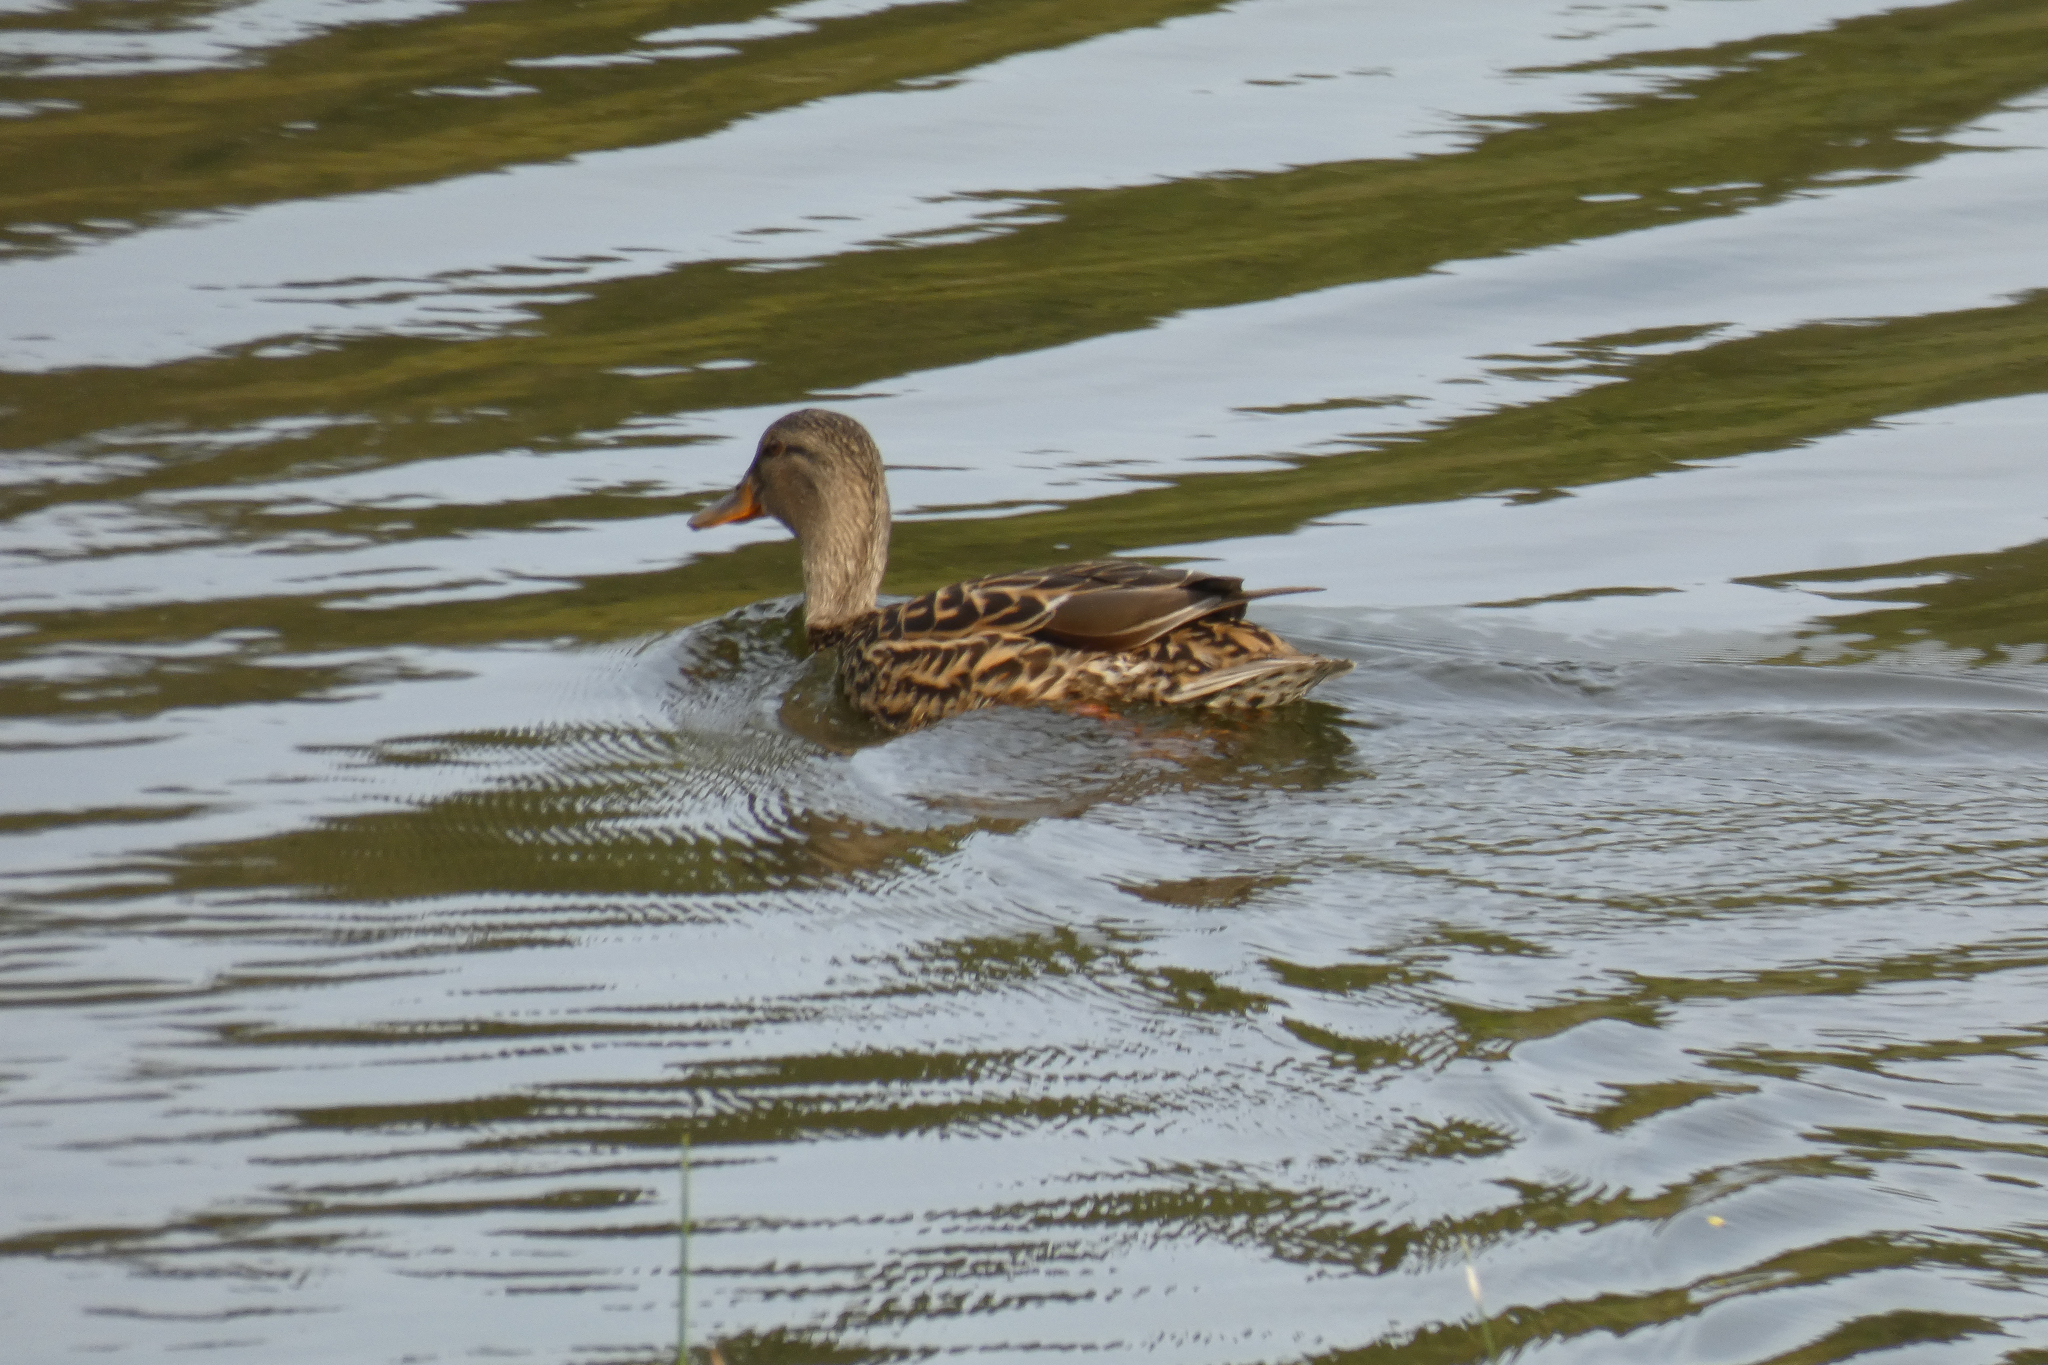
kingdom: Animalia
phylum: Chordata
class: Aves
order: Anseriformes
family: Anatidae
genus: Anas
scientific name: Anas platyrhynchos
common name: Mallard
